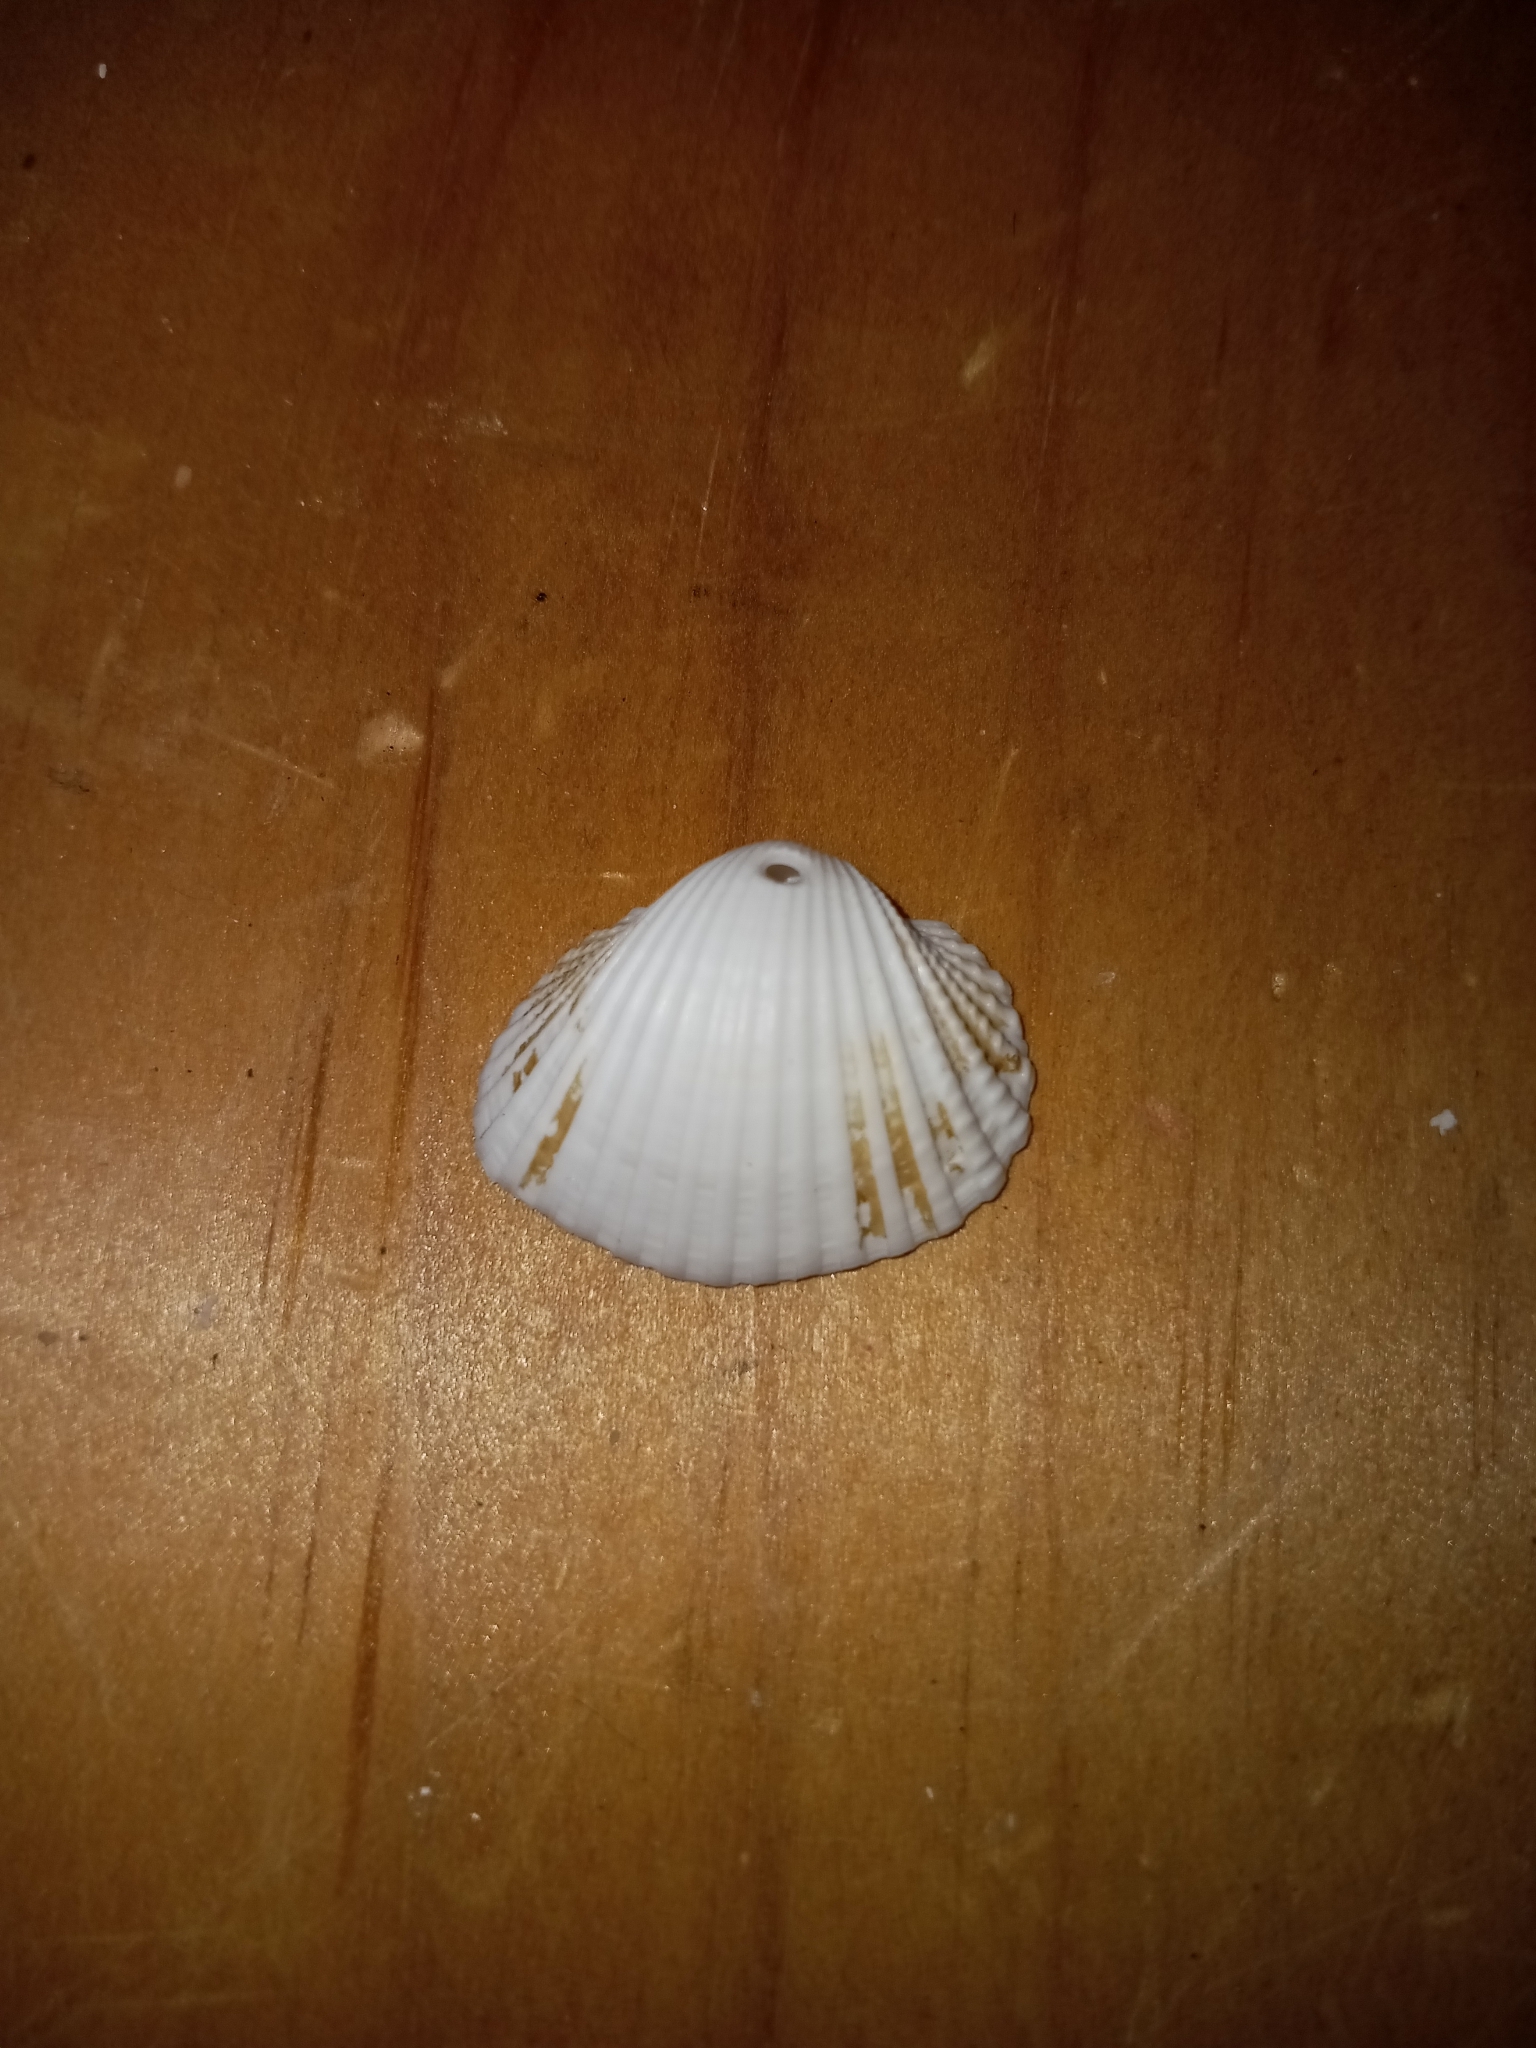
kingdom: Animalia
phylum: Mollusca
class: Bivalvia
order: Arcida
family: Arcidae
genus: Anadara
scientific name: Anadara brasiliana
